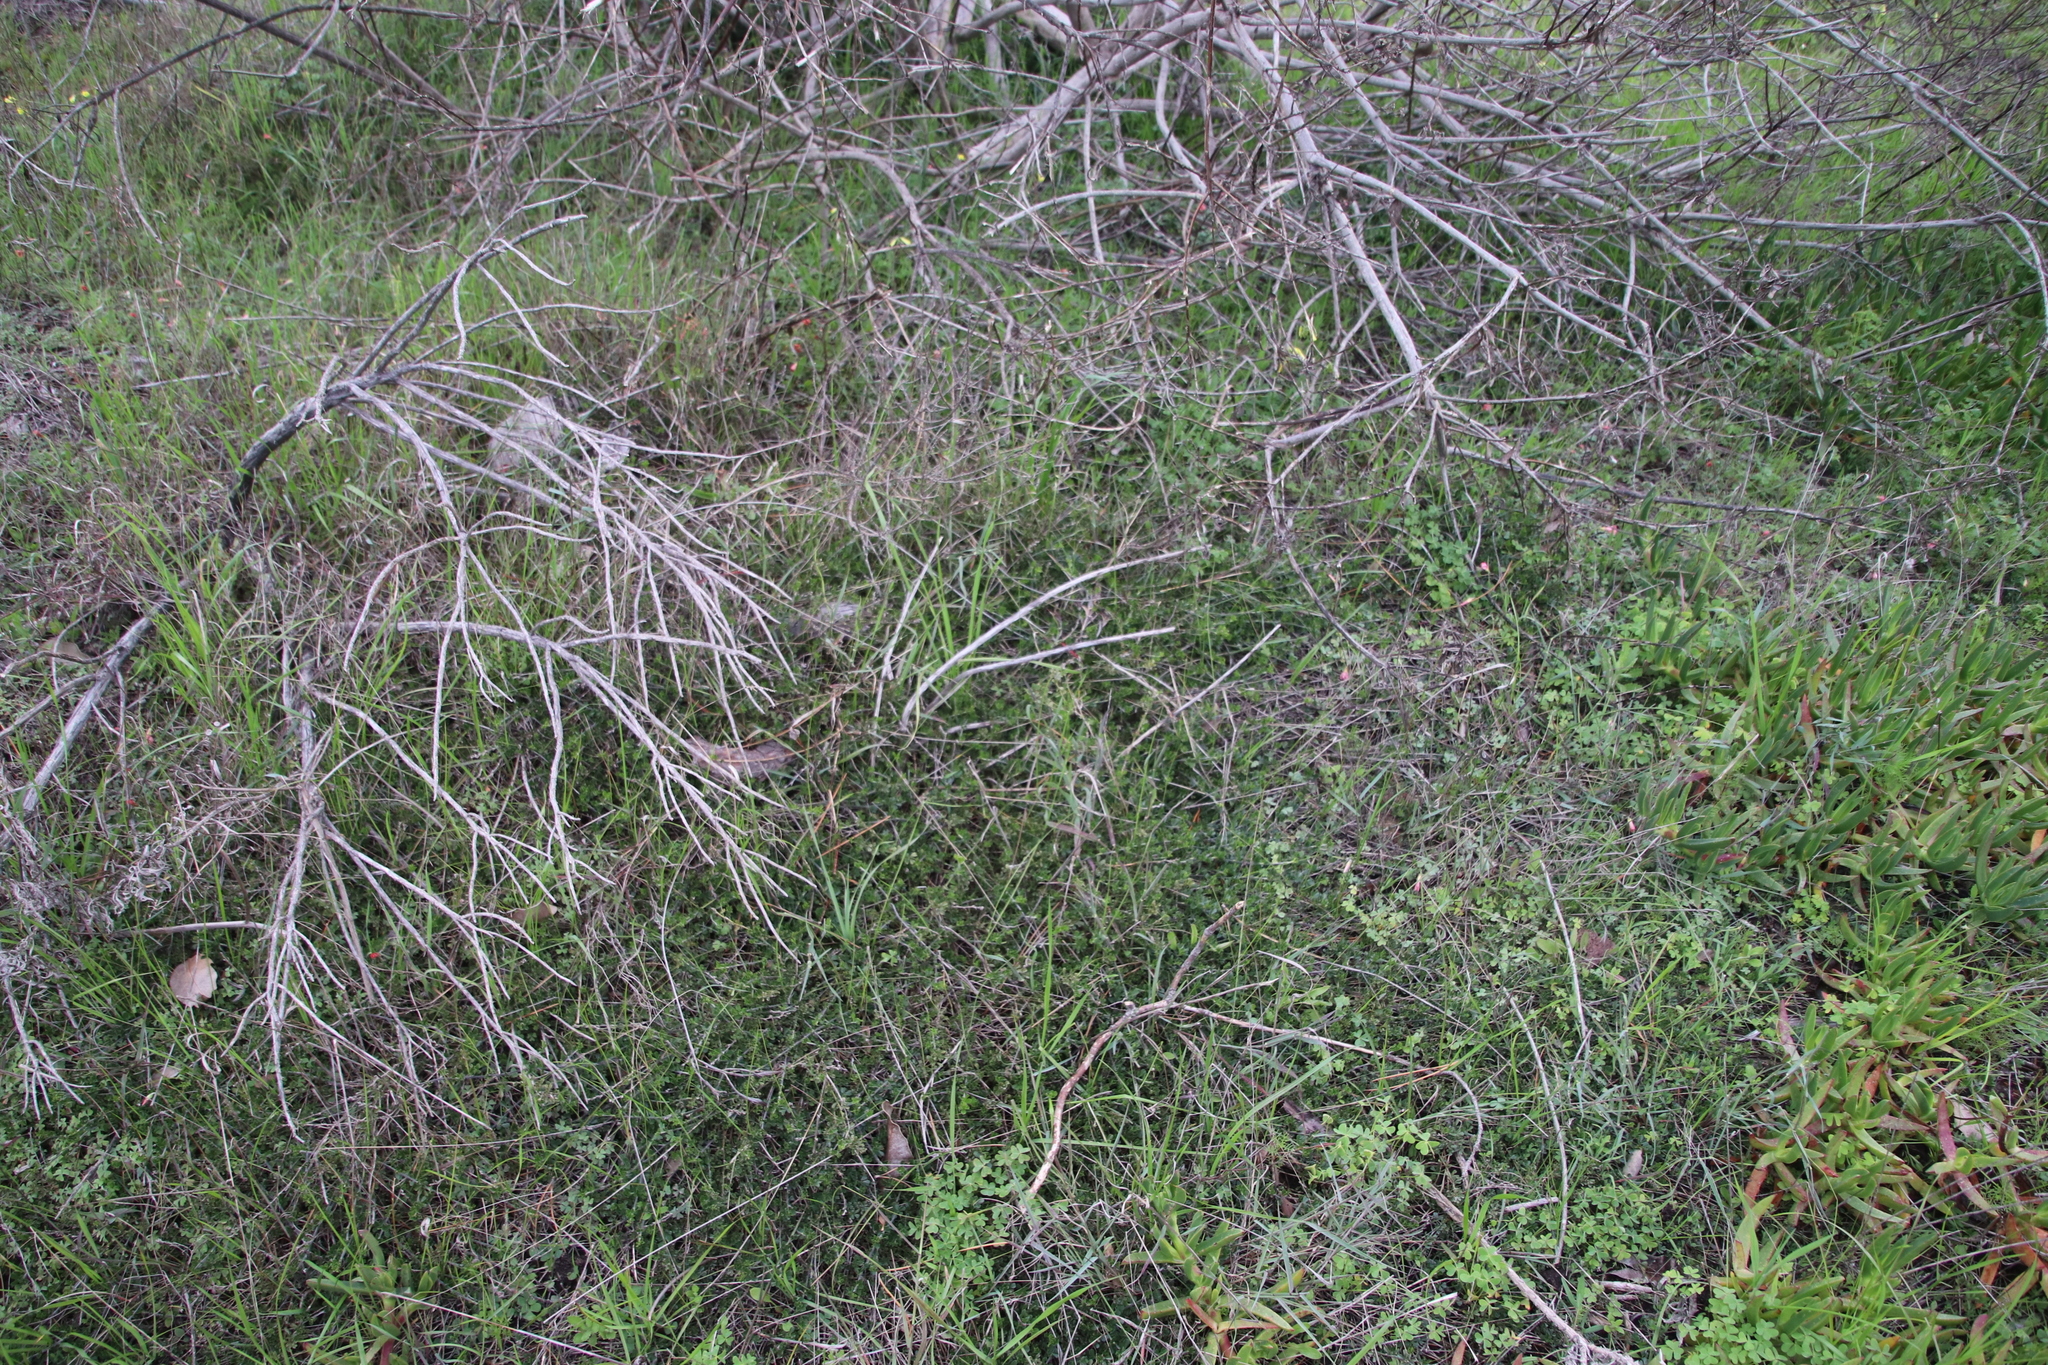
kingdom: Plantae
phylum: Tracheophyta
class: Magnoliopsida
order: Fabales
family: Fabaceae
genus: Psoralea
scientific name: Psoralea
